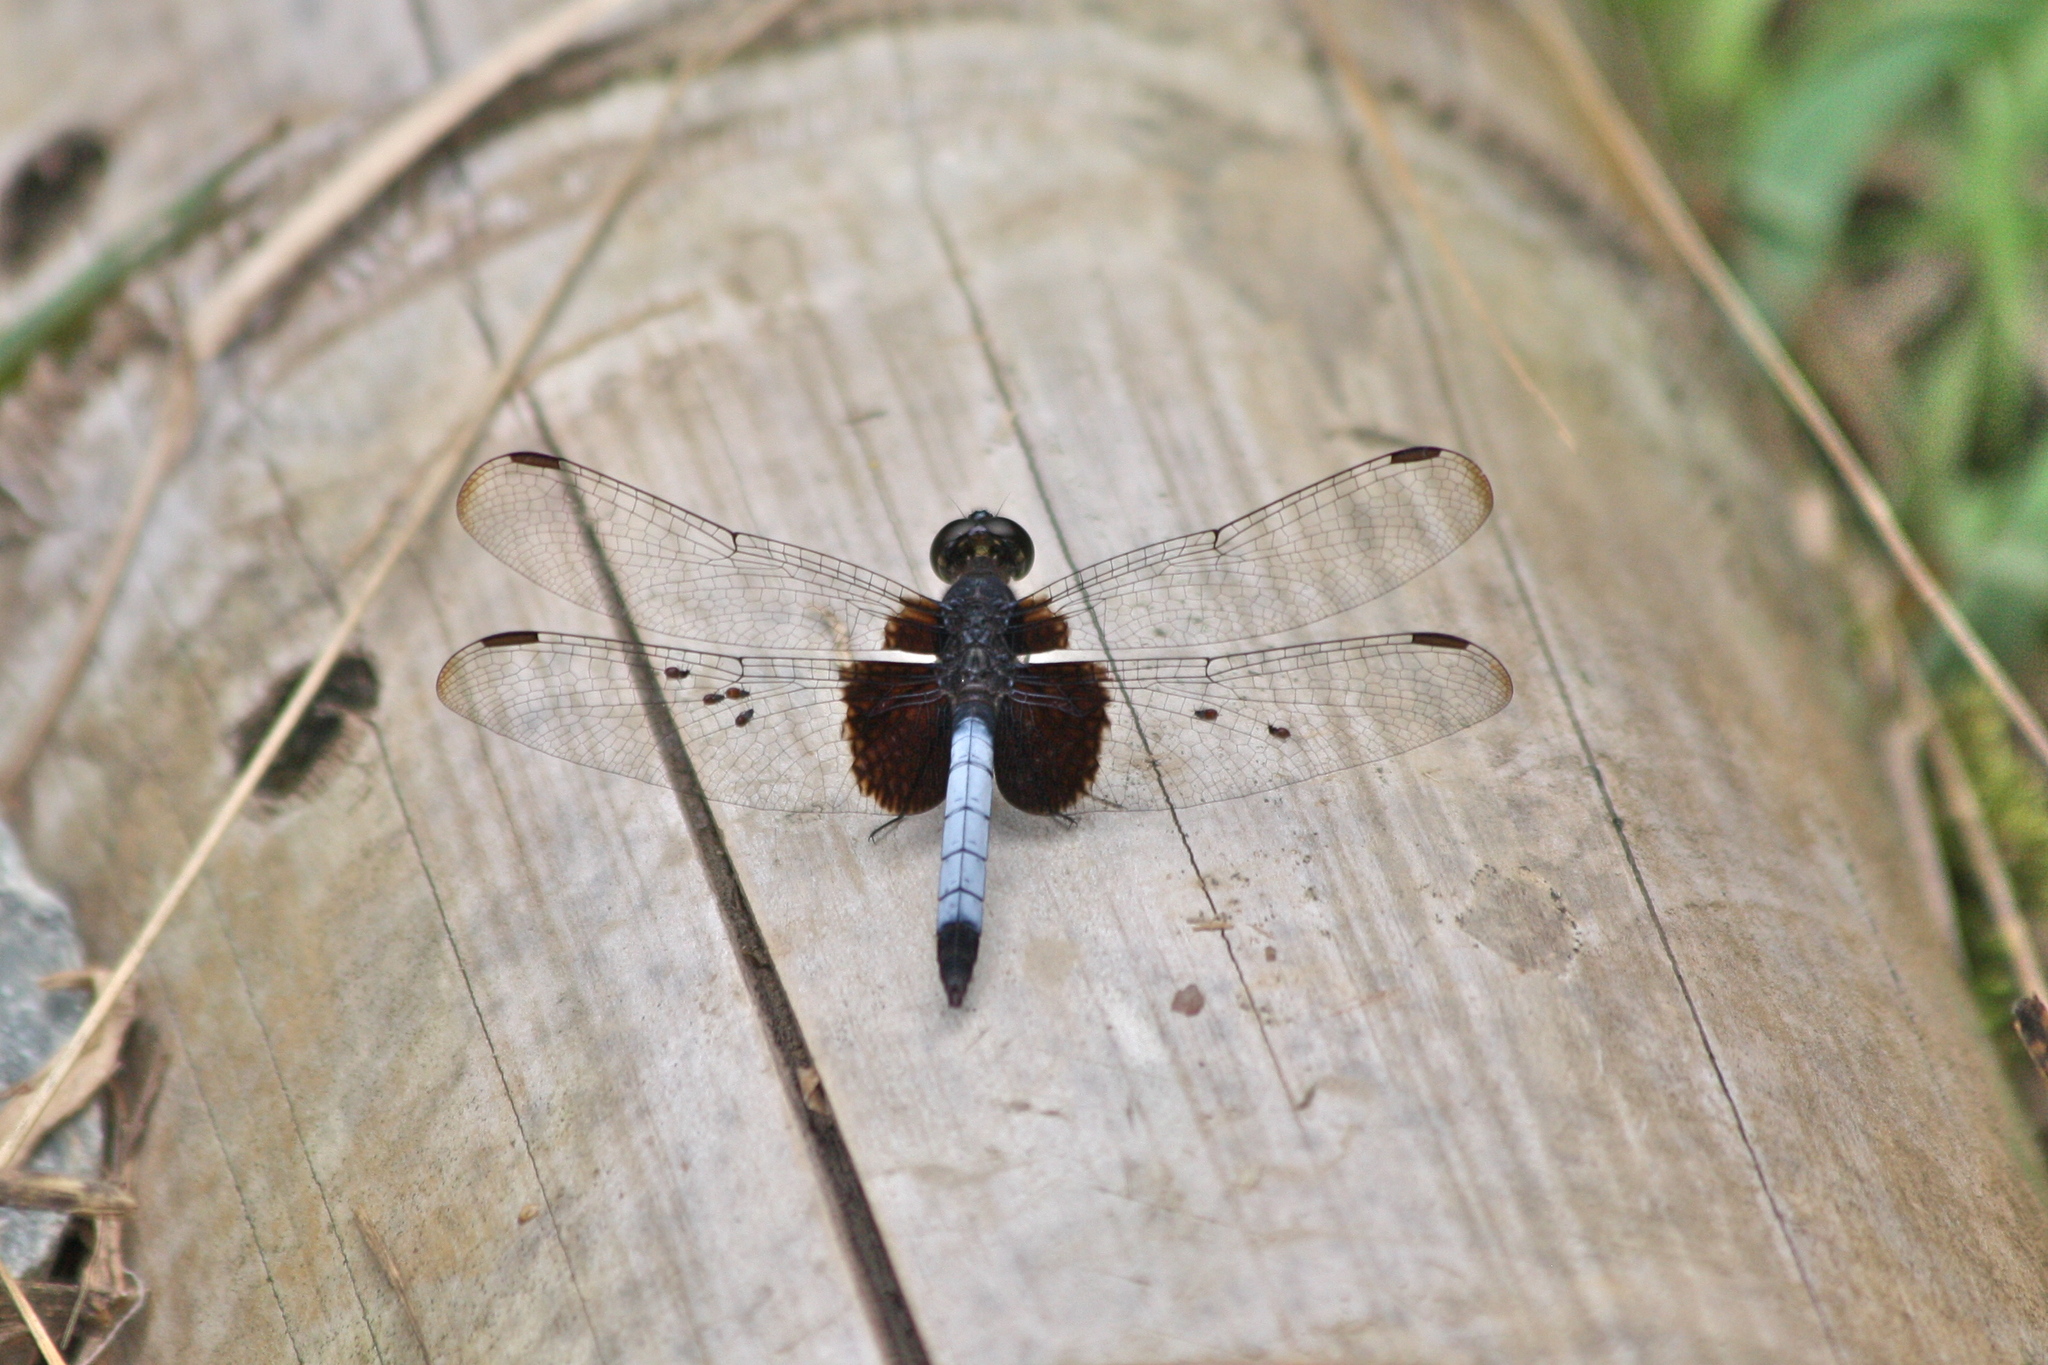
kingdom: Animalia
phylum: Arthropoda
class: Insecta
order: Odonata
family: Libellulidae
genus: Erythrodiplax
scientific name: Erythrodiplax unimaculata
